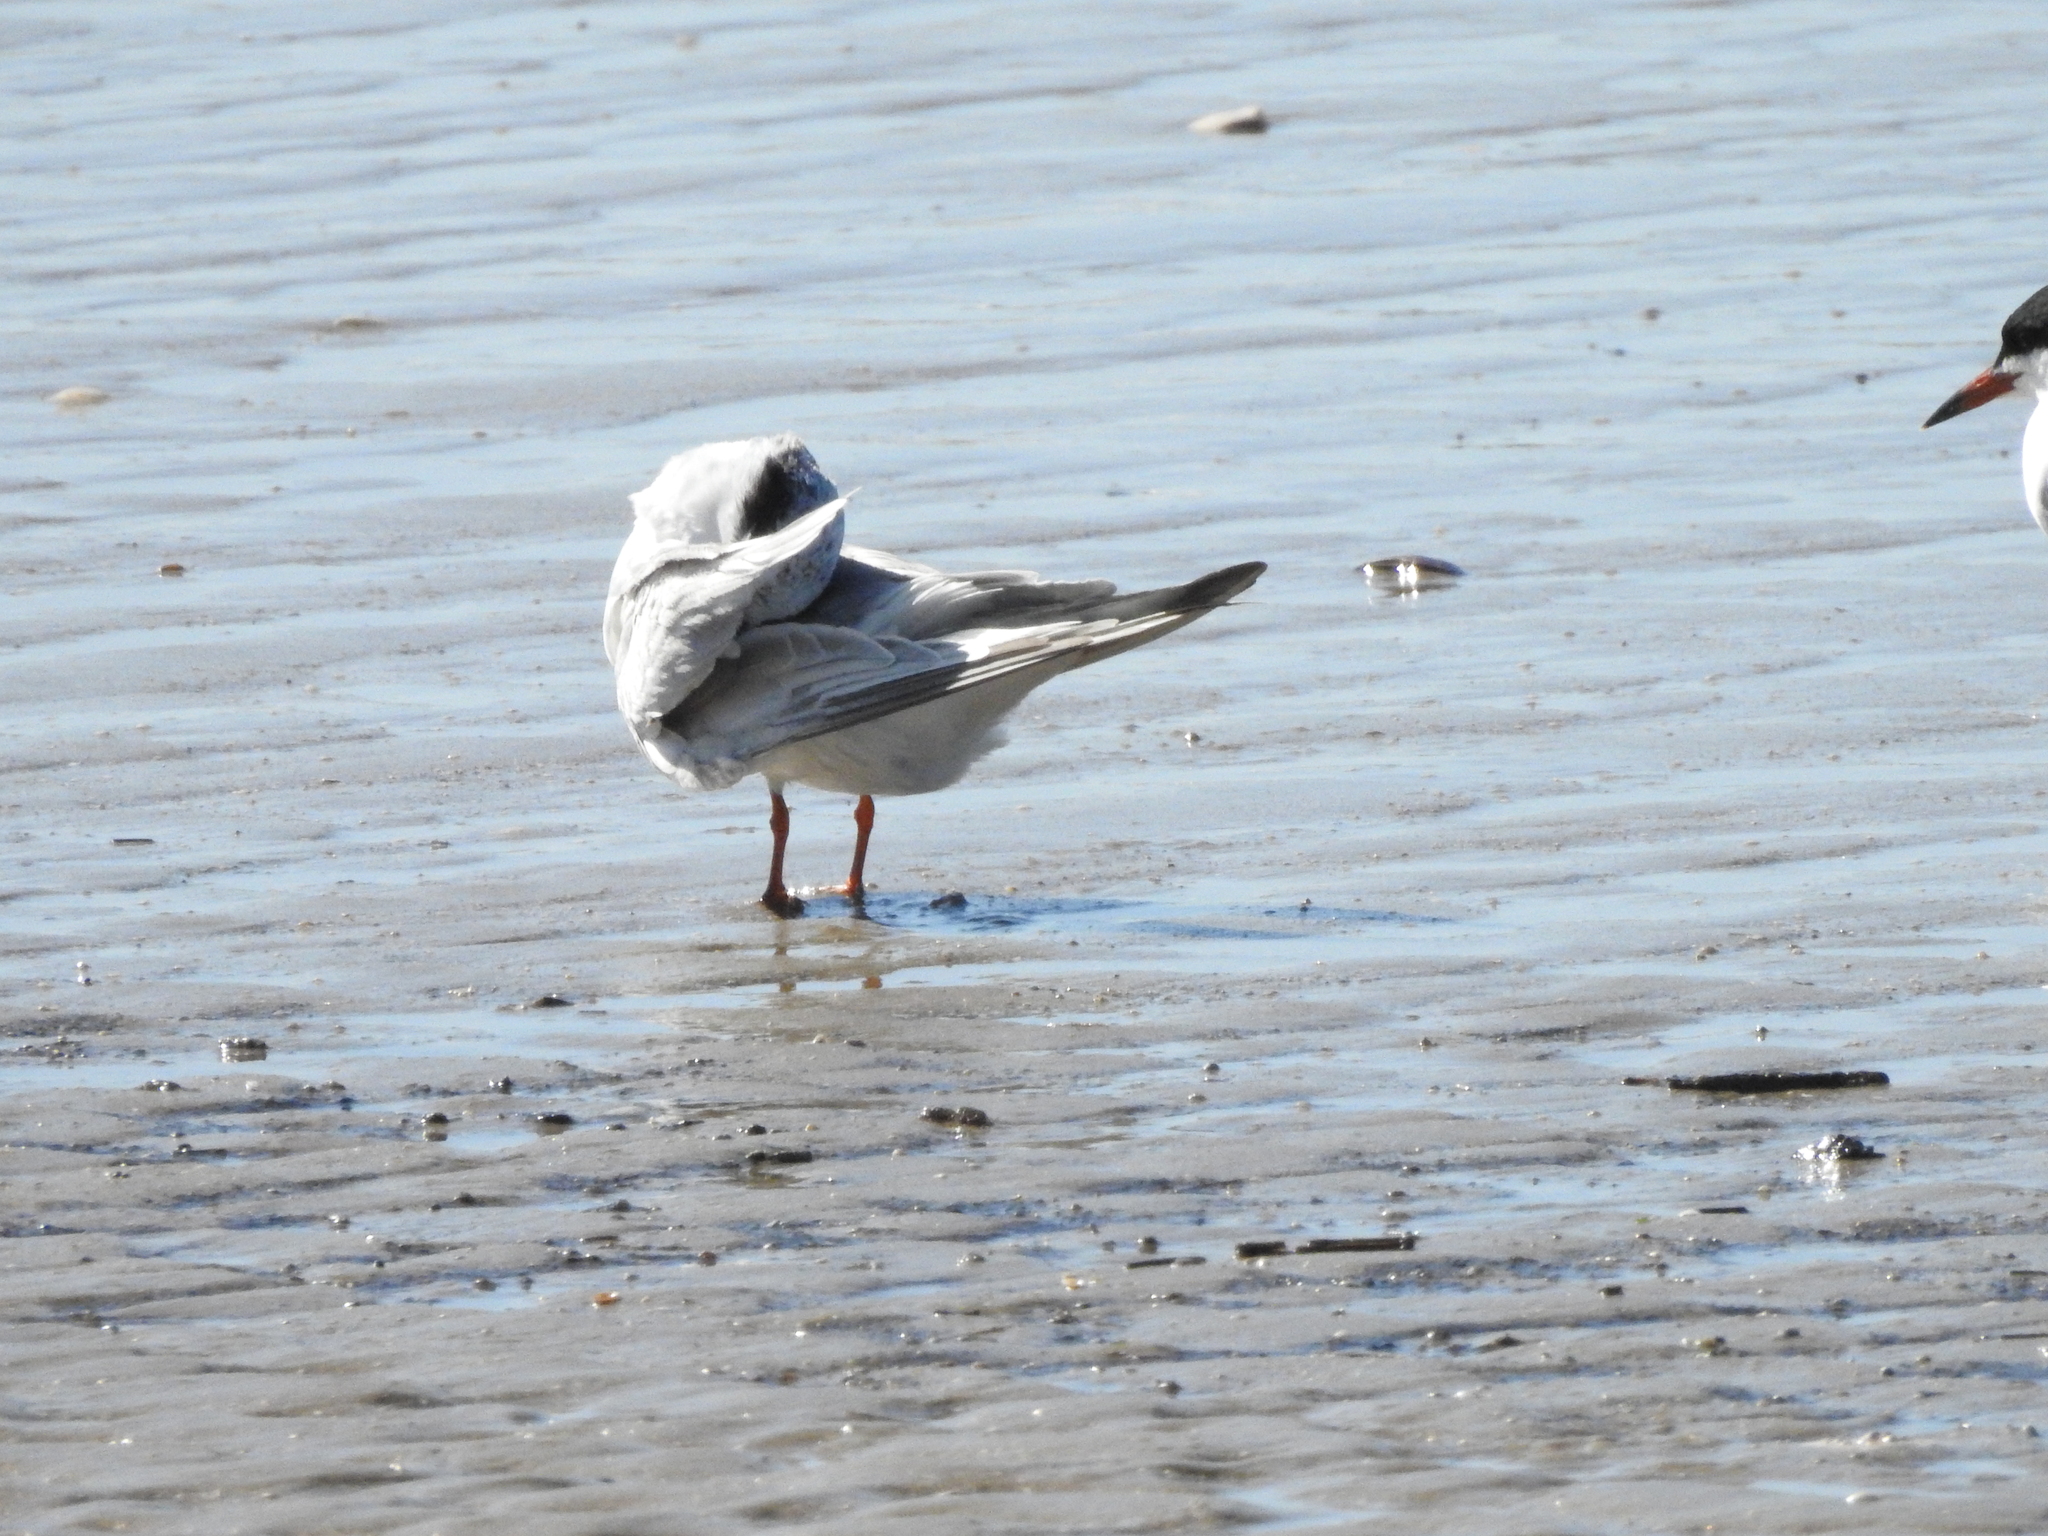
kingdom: Animalia
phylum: Chordata
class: Aves
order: Charadriiformes
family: Laridae
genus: Sterna
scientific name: Sterna forsteri
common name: Forster's tern
